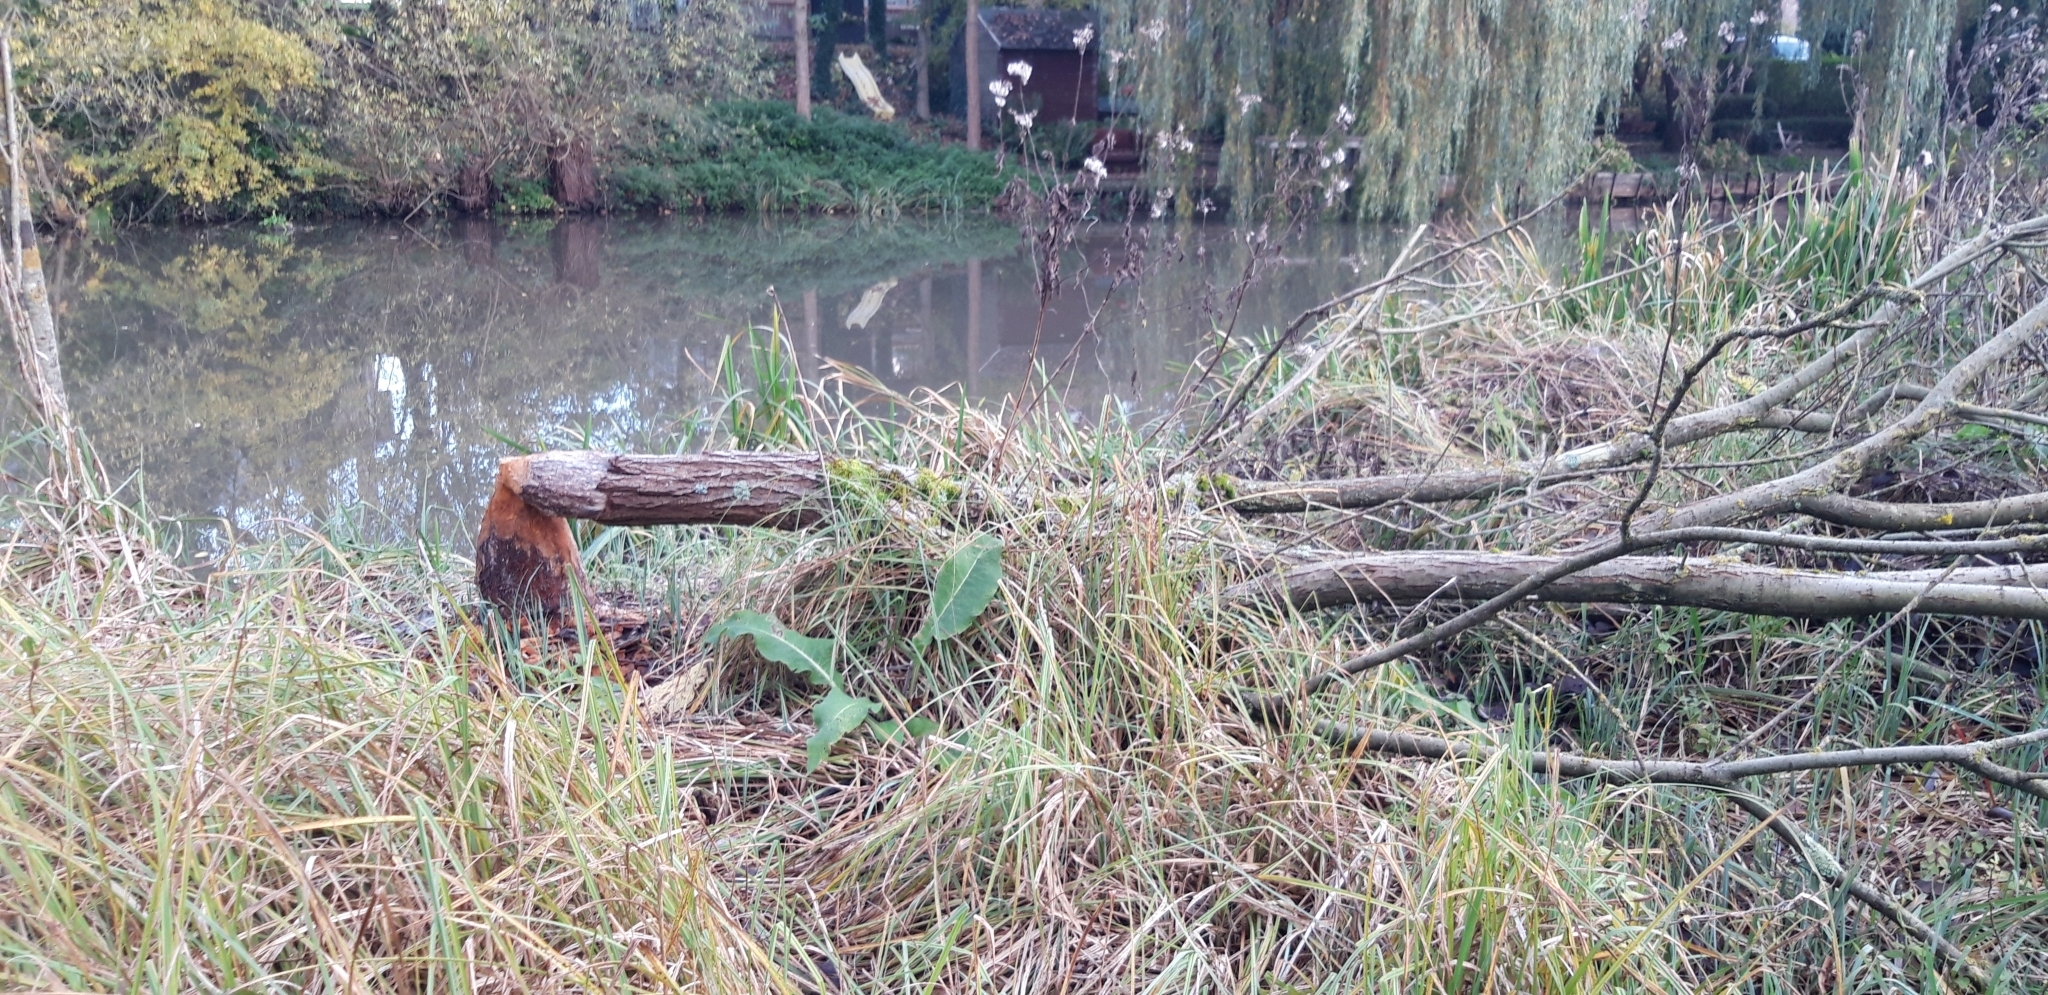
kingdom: Animalia
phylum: Chordata
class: Mammalia
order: Rodentia
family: Castoridae
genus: Castor
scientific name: Castor fiber
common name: Eurasian beaver
